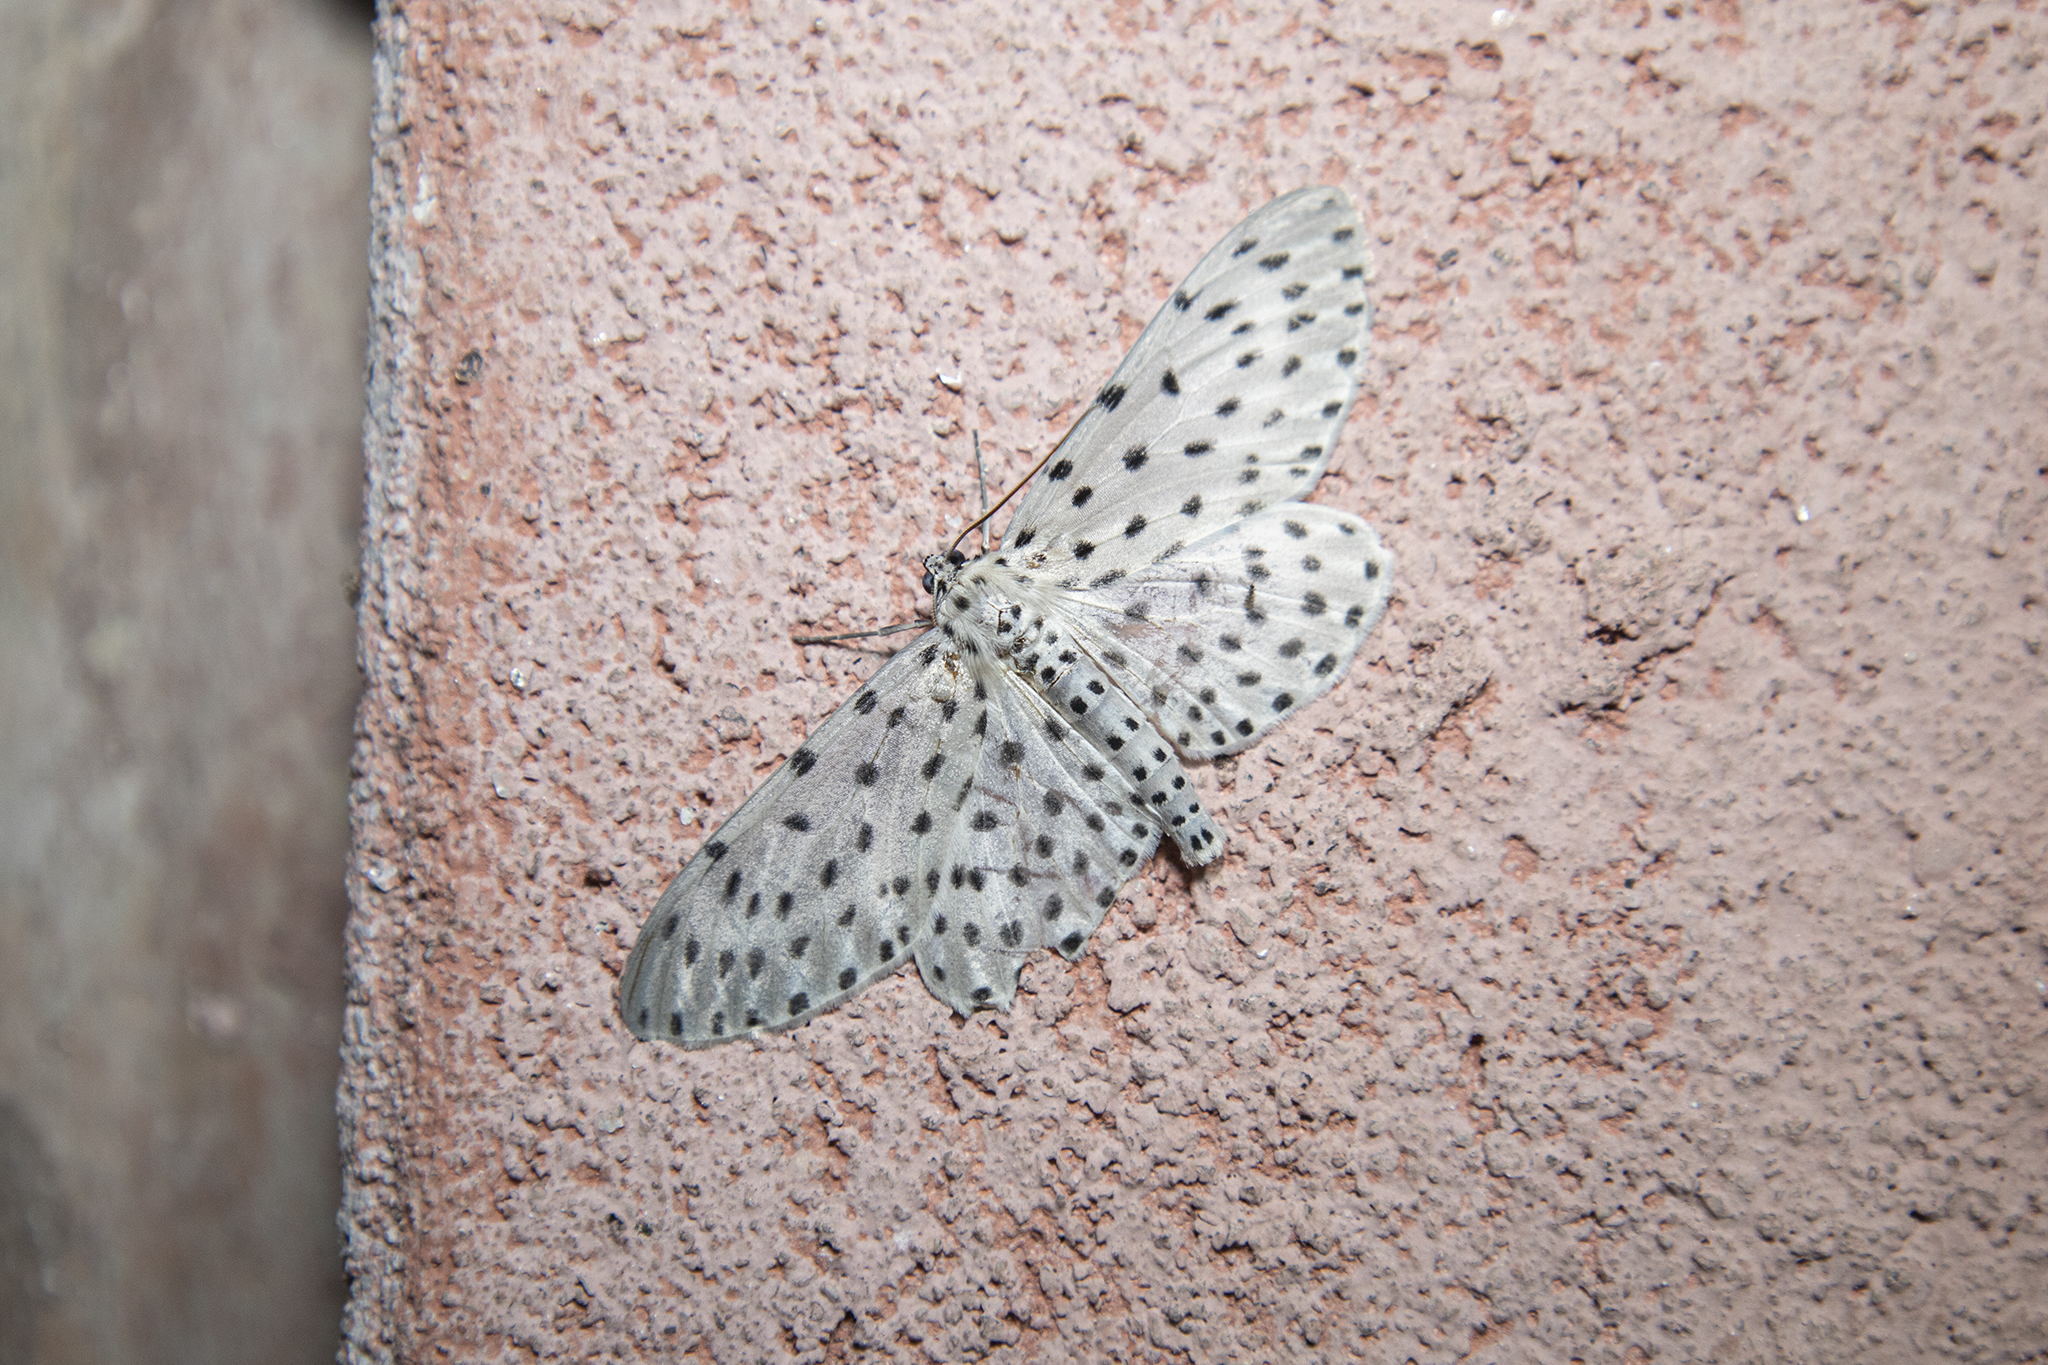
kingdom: Animalia
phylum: Arthropoda
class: Insecta
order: Lepidoptera
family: Geometridae
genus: Antipercnia
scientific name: Antipercnia belluaria
